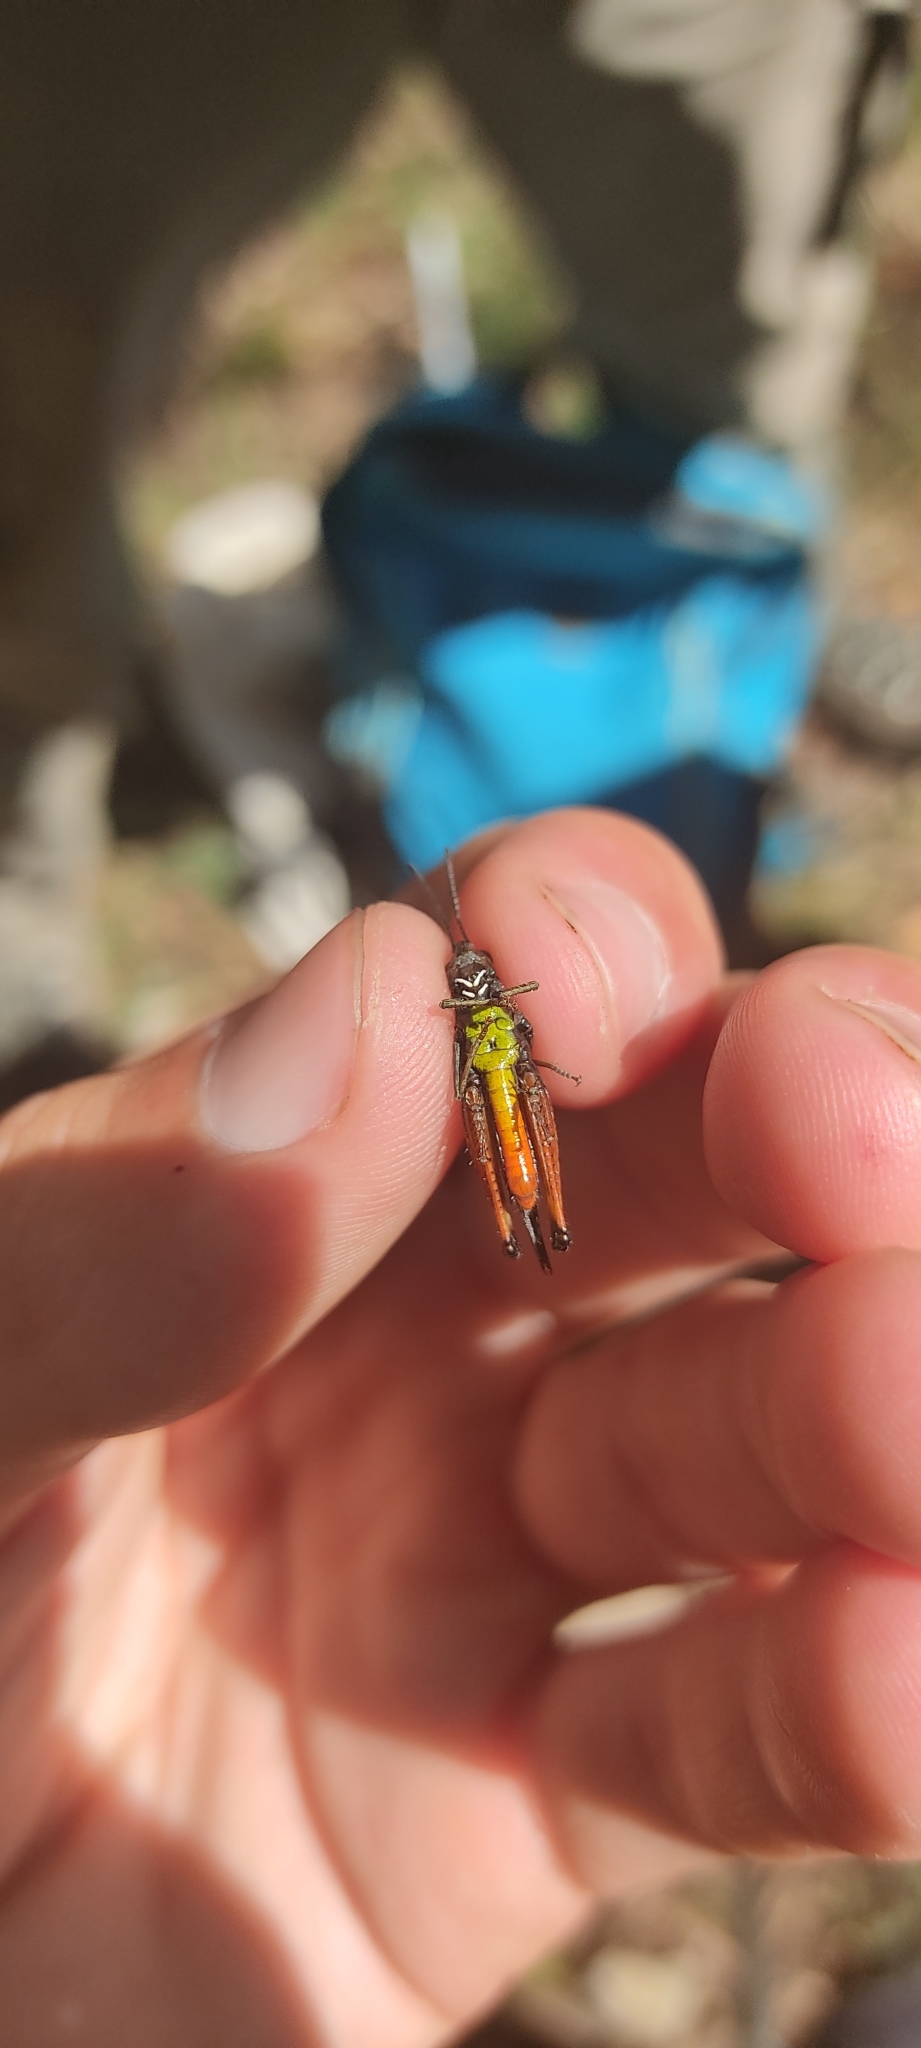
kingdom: Animalia
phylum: Arthropoda
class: Insecta
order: Orthoptera
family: Acrididae
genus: Omocestus
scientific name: Omocestus rufipes
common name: Woodland grasshopper
